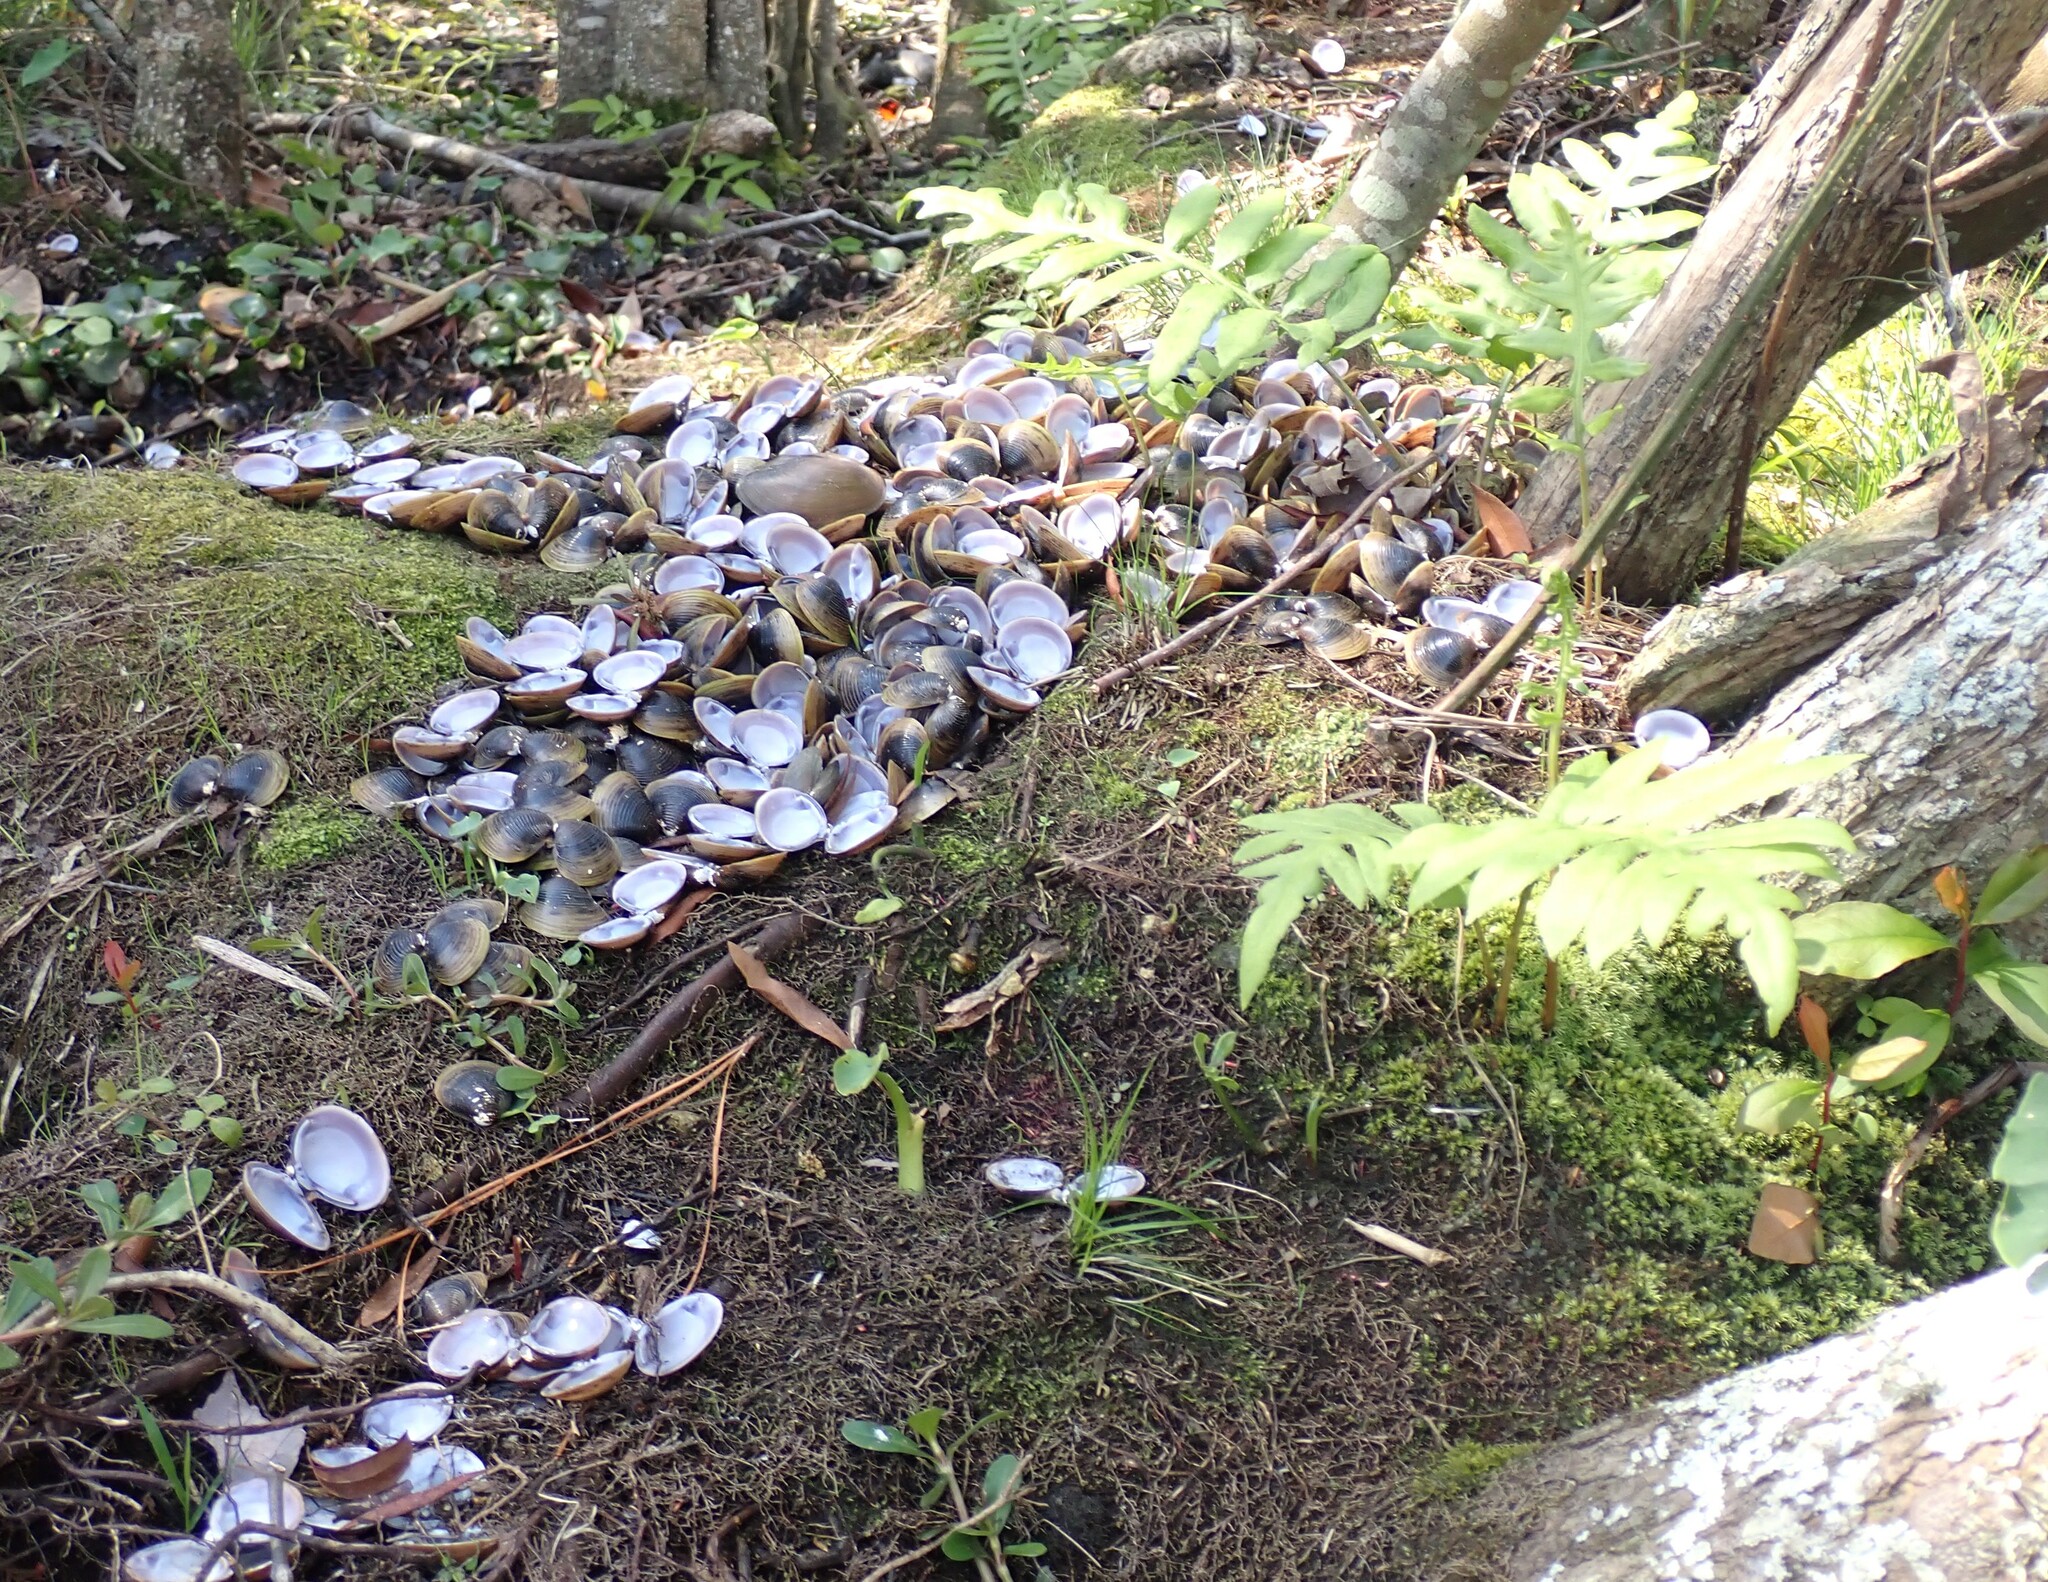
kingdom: Animalia
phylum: Mollusca
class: Bivalvia
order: Venerida
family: Cyrenidae
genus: Corbicula
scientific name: Corbicula fluminea
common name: Asian clam
